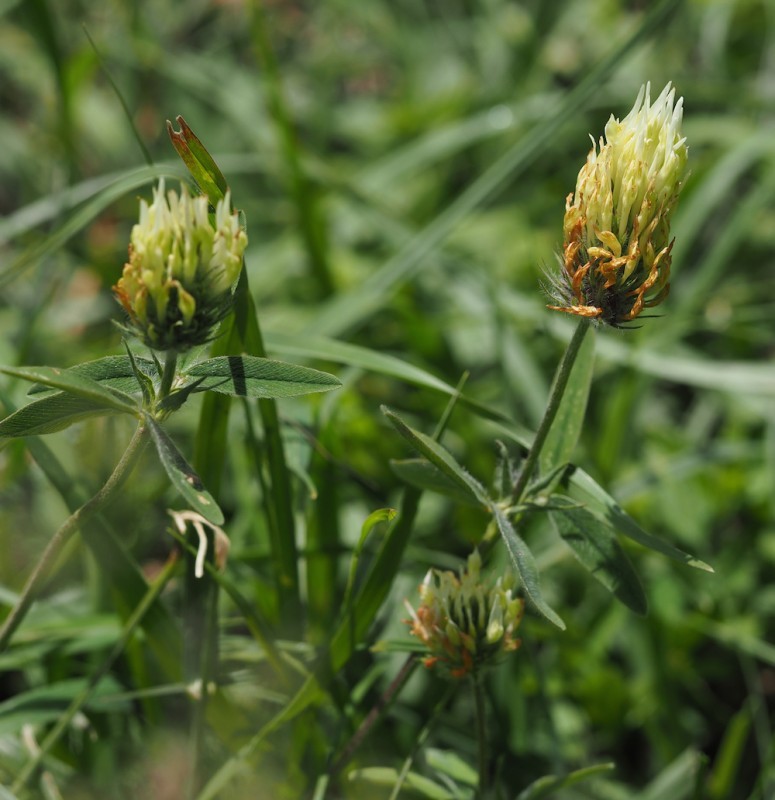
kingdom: Plantae
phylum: Tracheophyta
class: Magnoliopsida
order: Fabales
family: Fabaceae
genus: Trifolium
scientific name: Trifolium ochroleucon
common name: Sulphur clover
